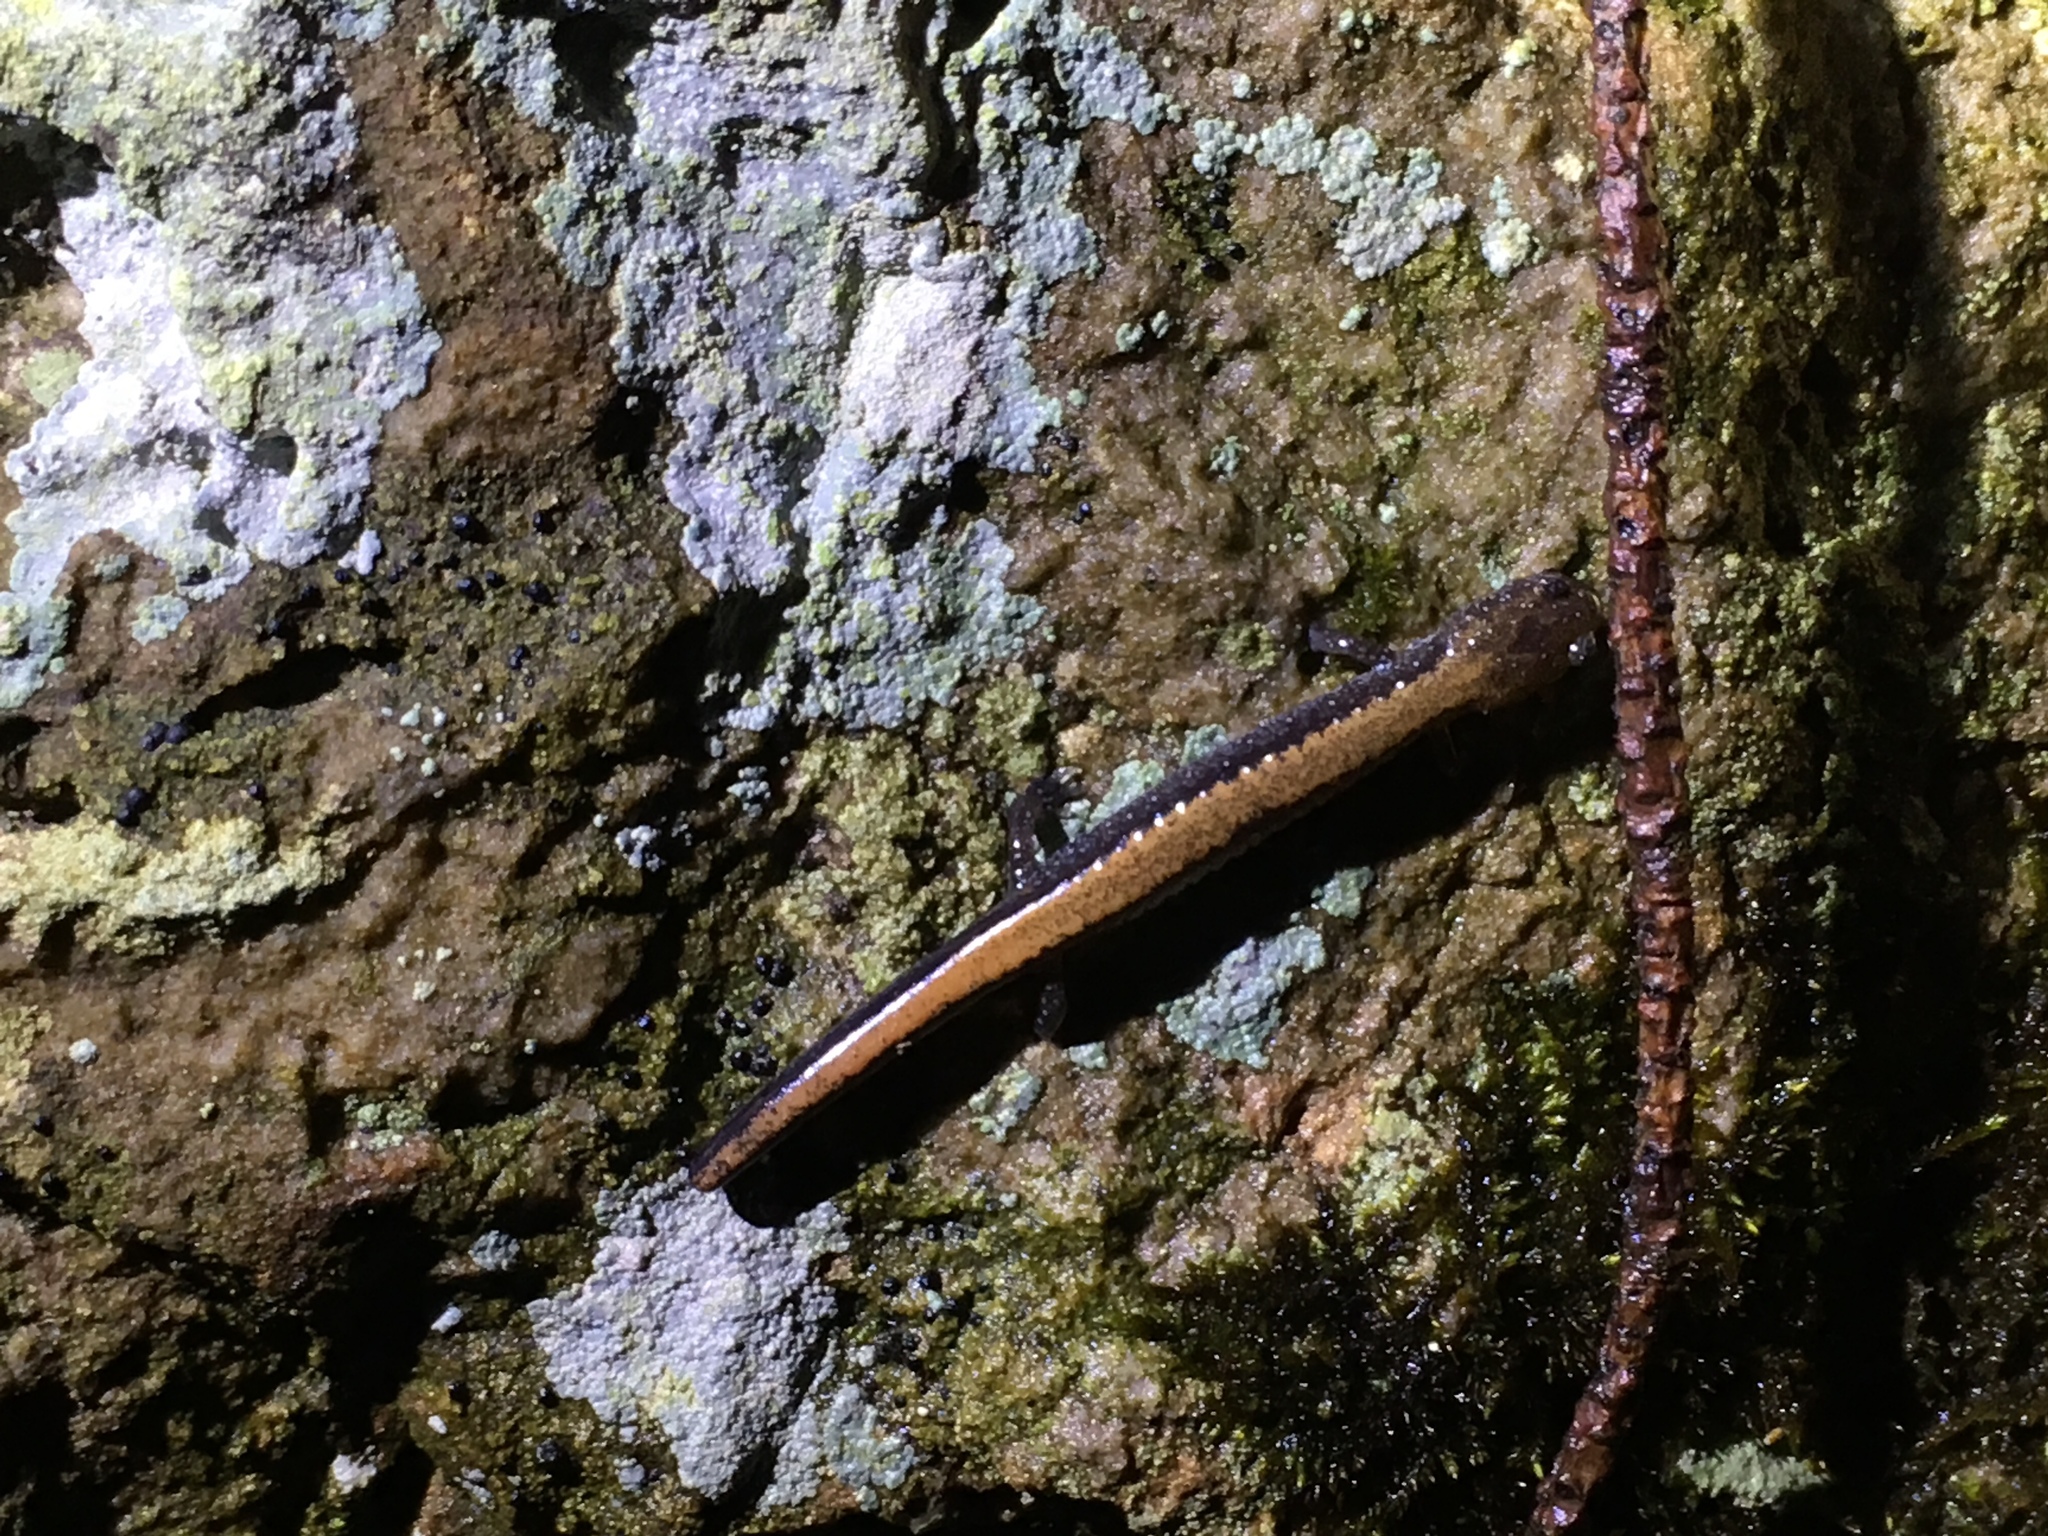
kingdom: Animalia
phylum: Chordata
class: Amphibia
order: Caudata
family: Plethodontidae
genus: Plethodon
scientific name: Plethodon cinereus
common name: Redback salamander
